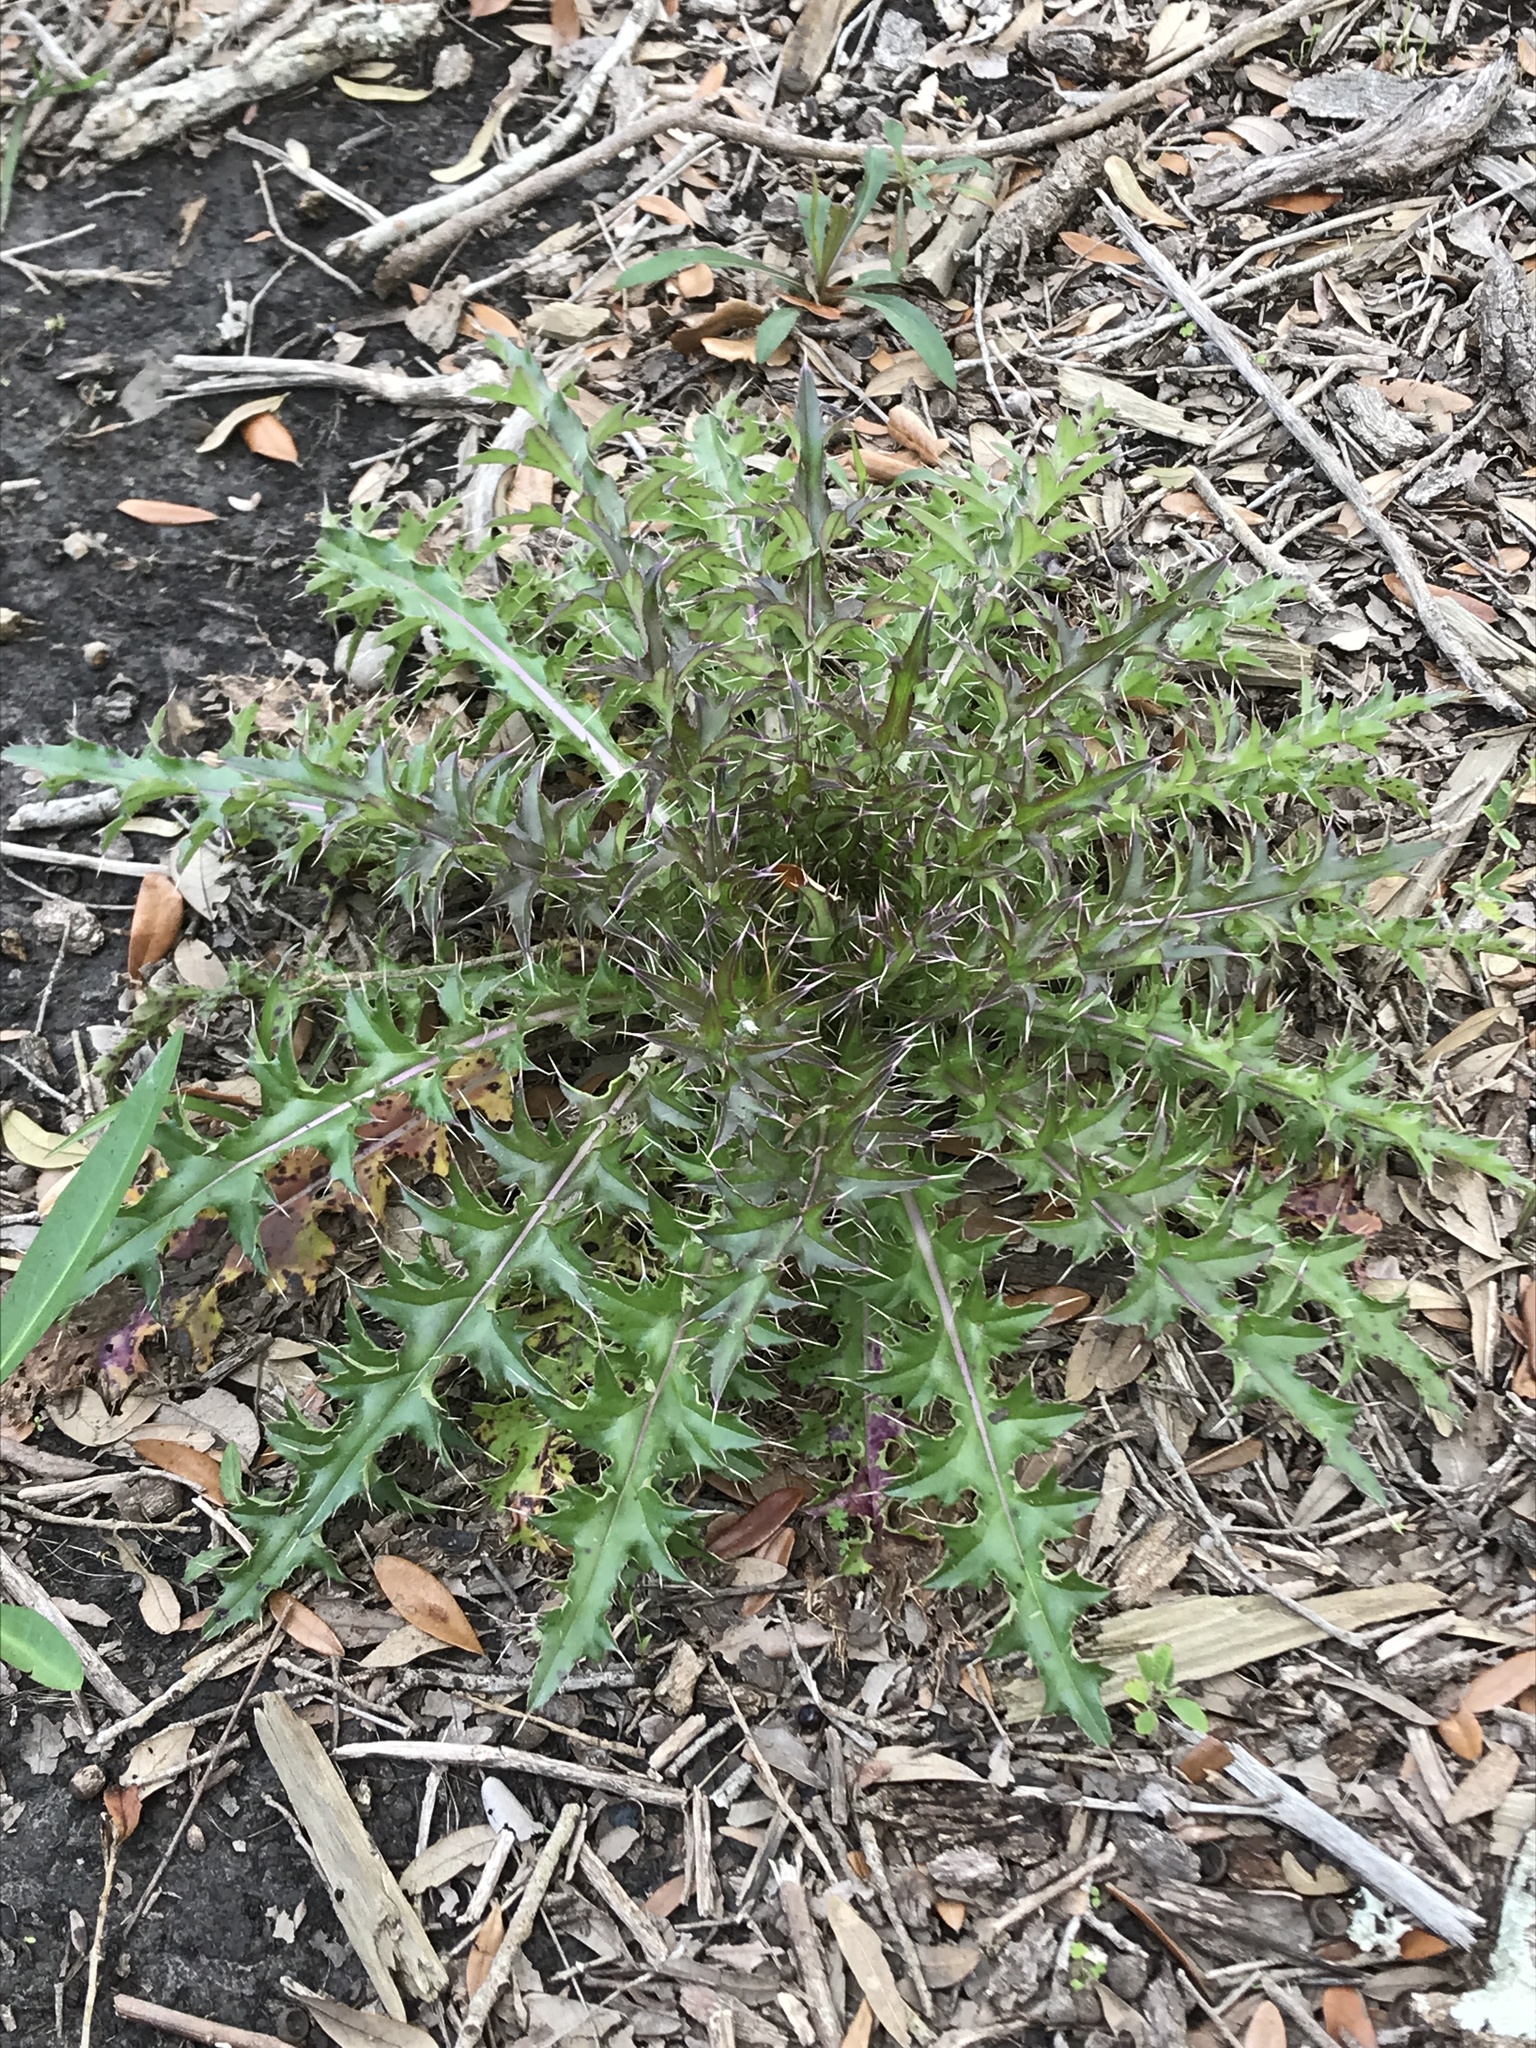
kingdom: Plantae
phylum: Tracheophyta
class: Magnoliopsida
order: Asterales
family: Asteraceae
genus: Cirsium
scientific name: Cirsium horridulum
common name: Bristly thistle
